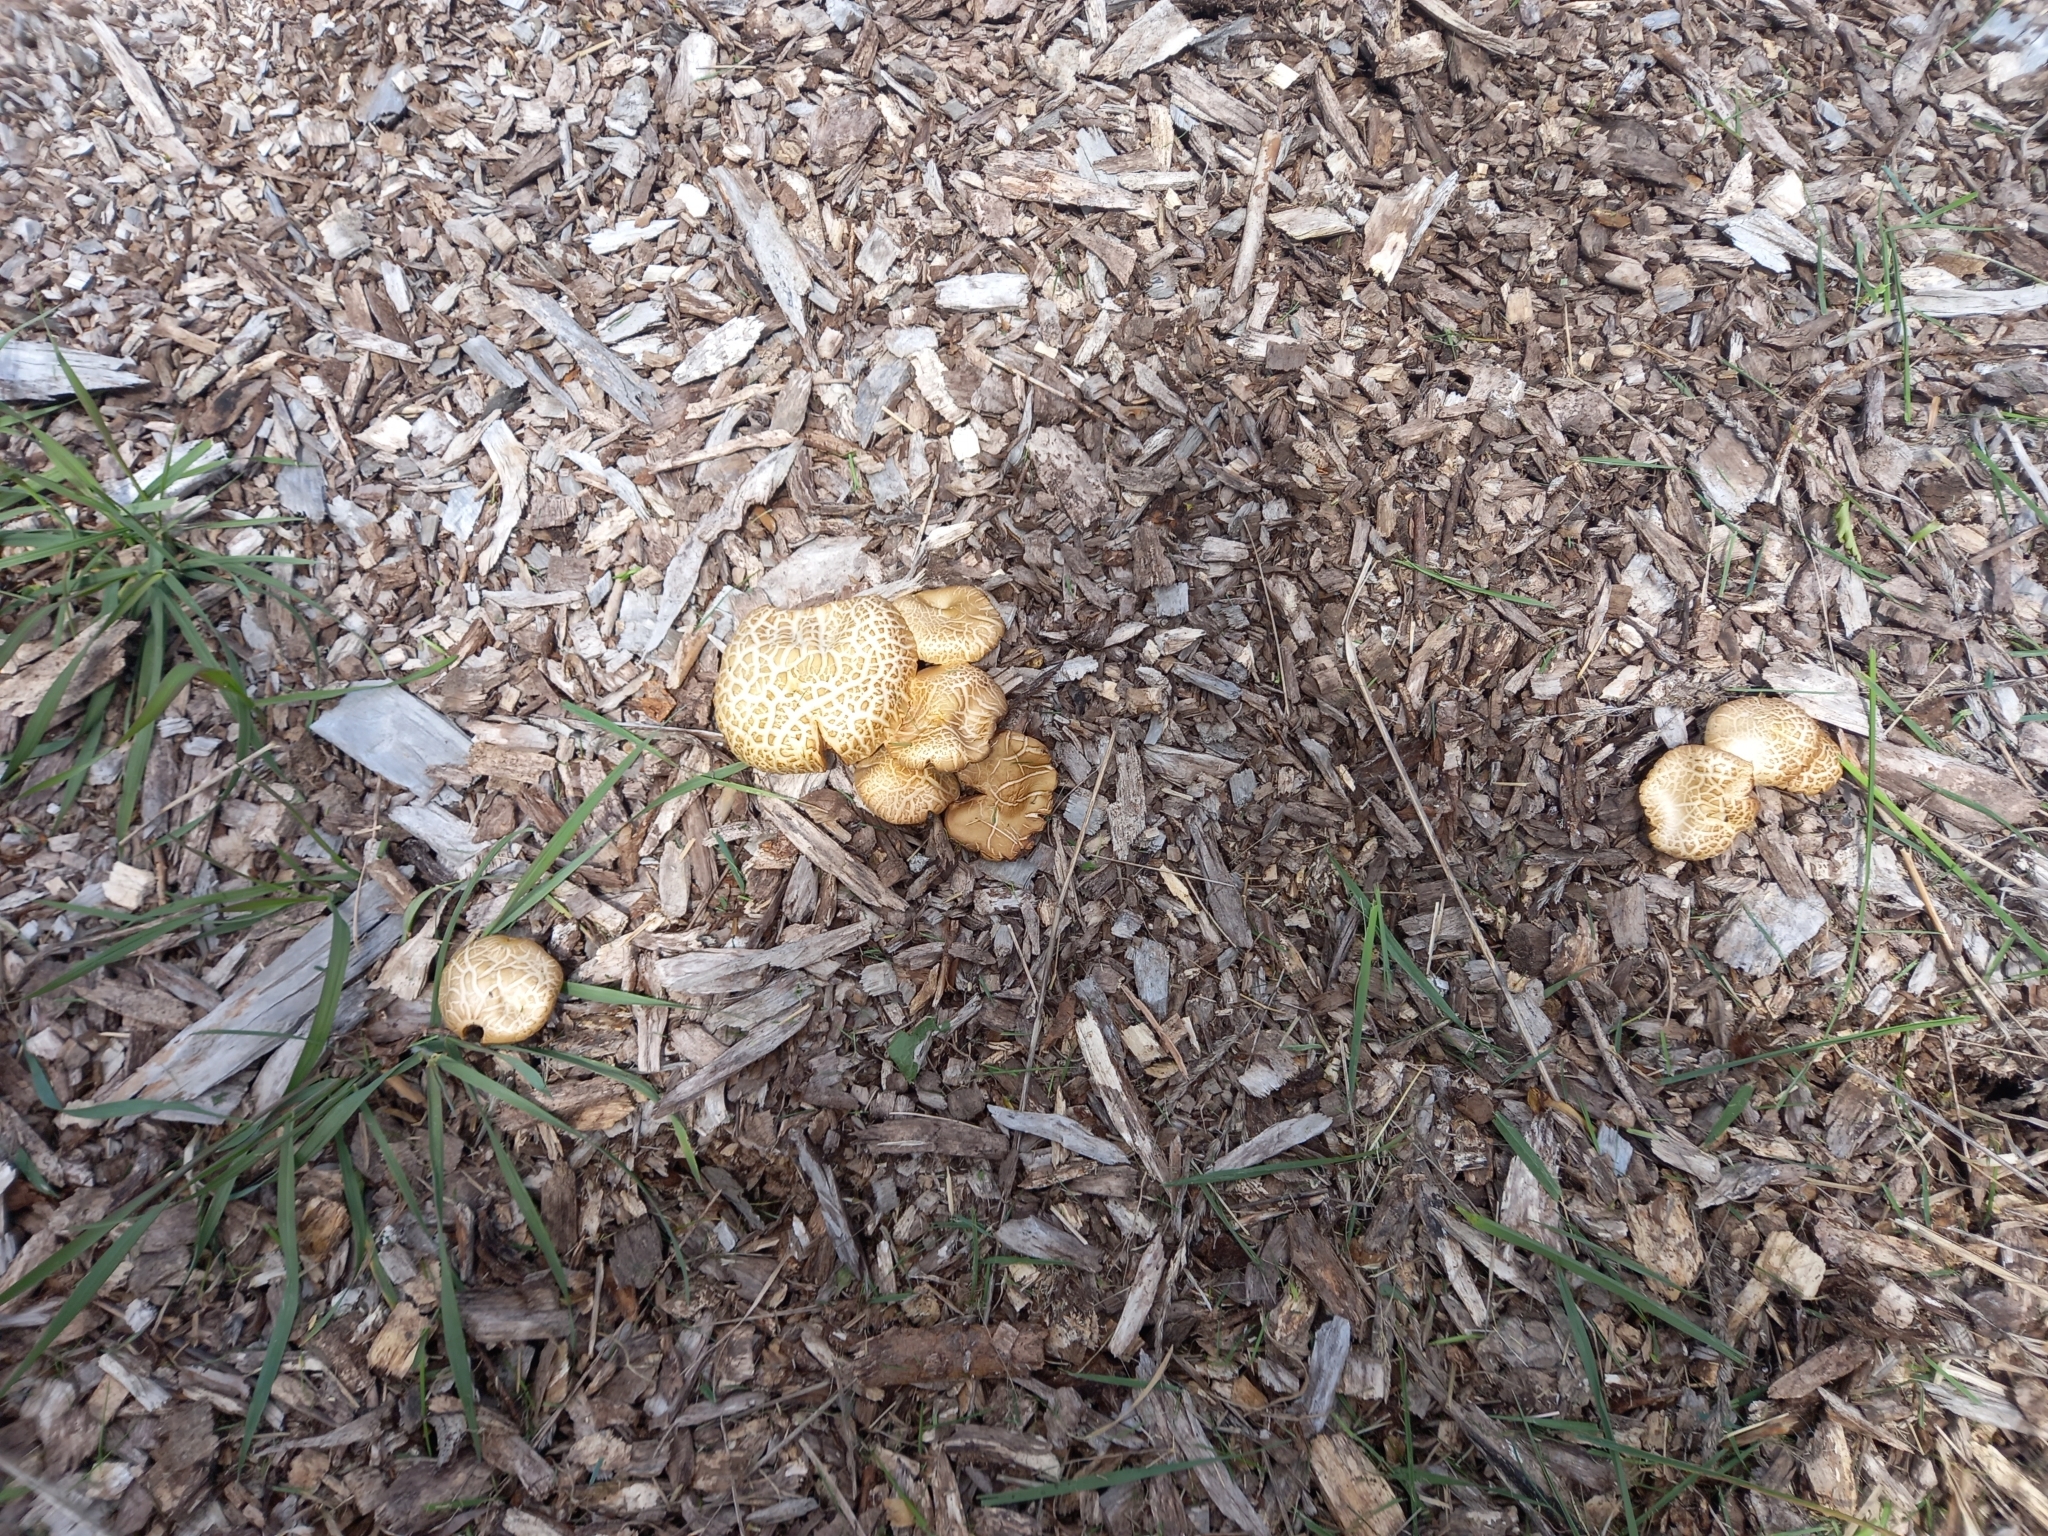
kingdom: Fungi
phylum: Basidiomycota
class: Agaricomycetes
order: Agaricales
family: Strophariaceae
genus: Agrocybe
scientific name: Agrocybe praecox
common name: Spring fieldcap
